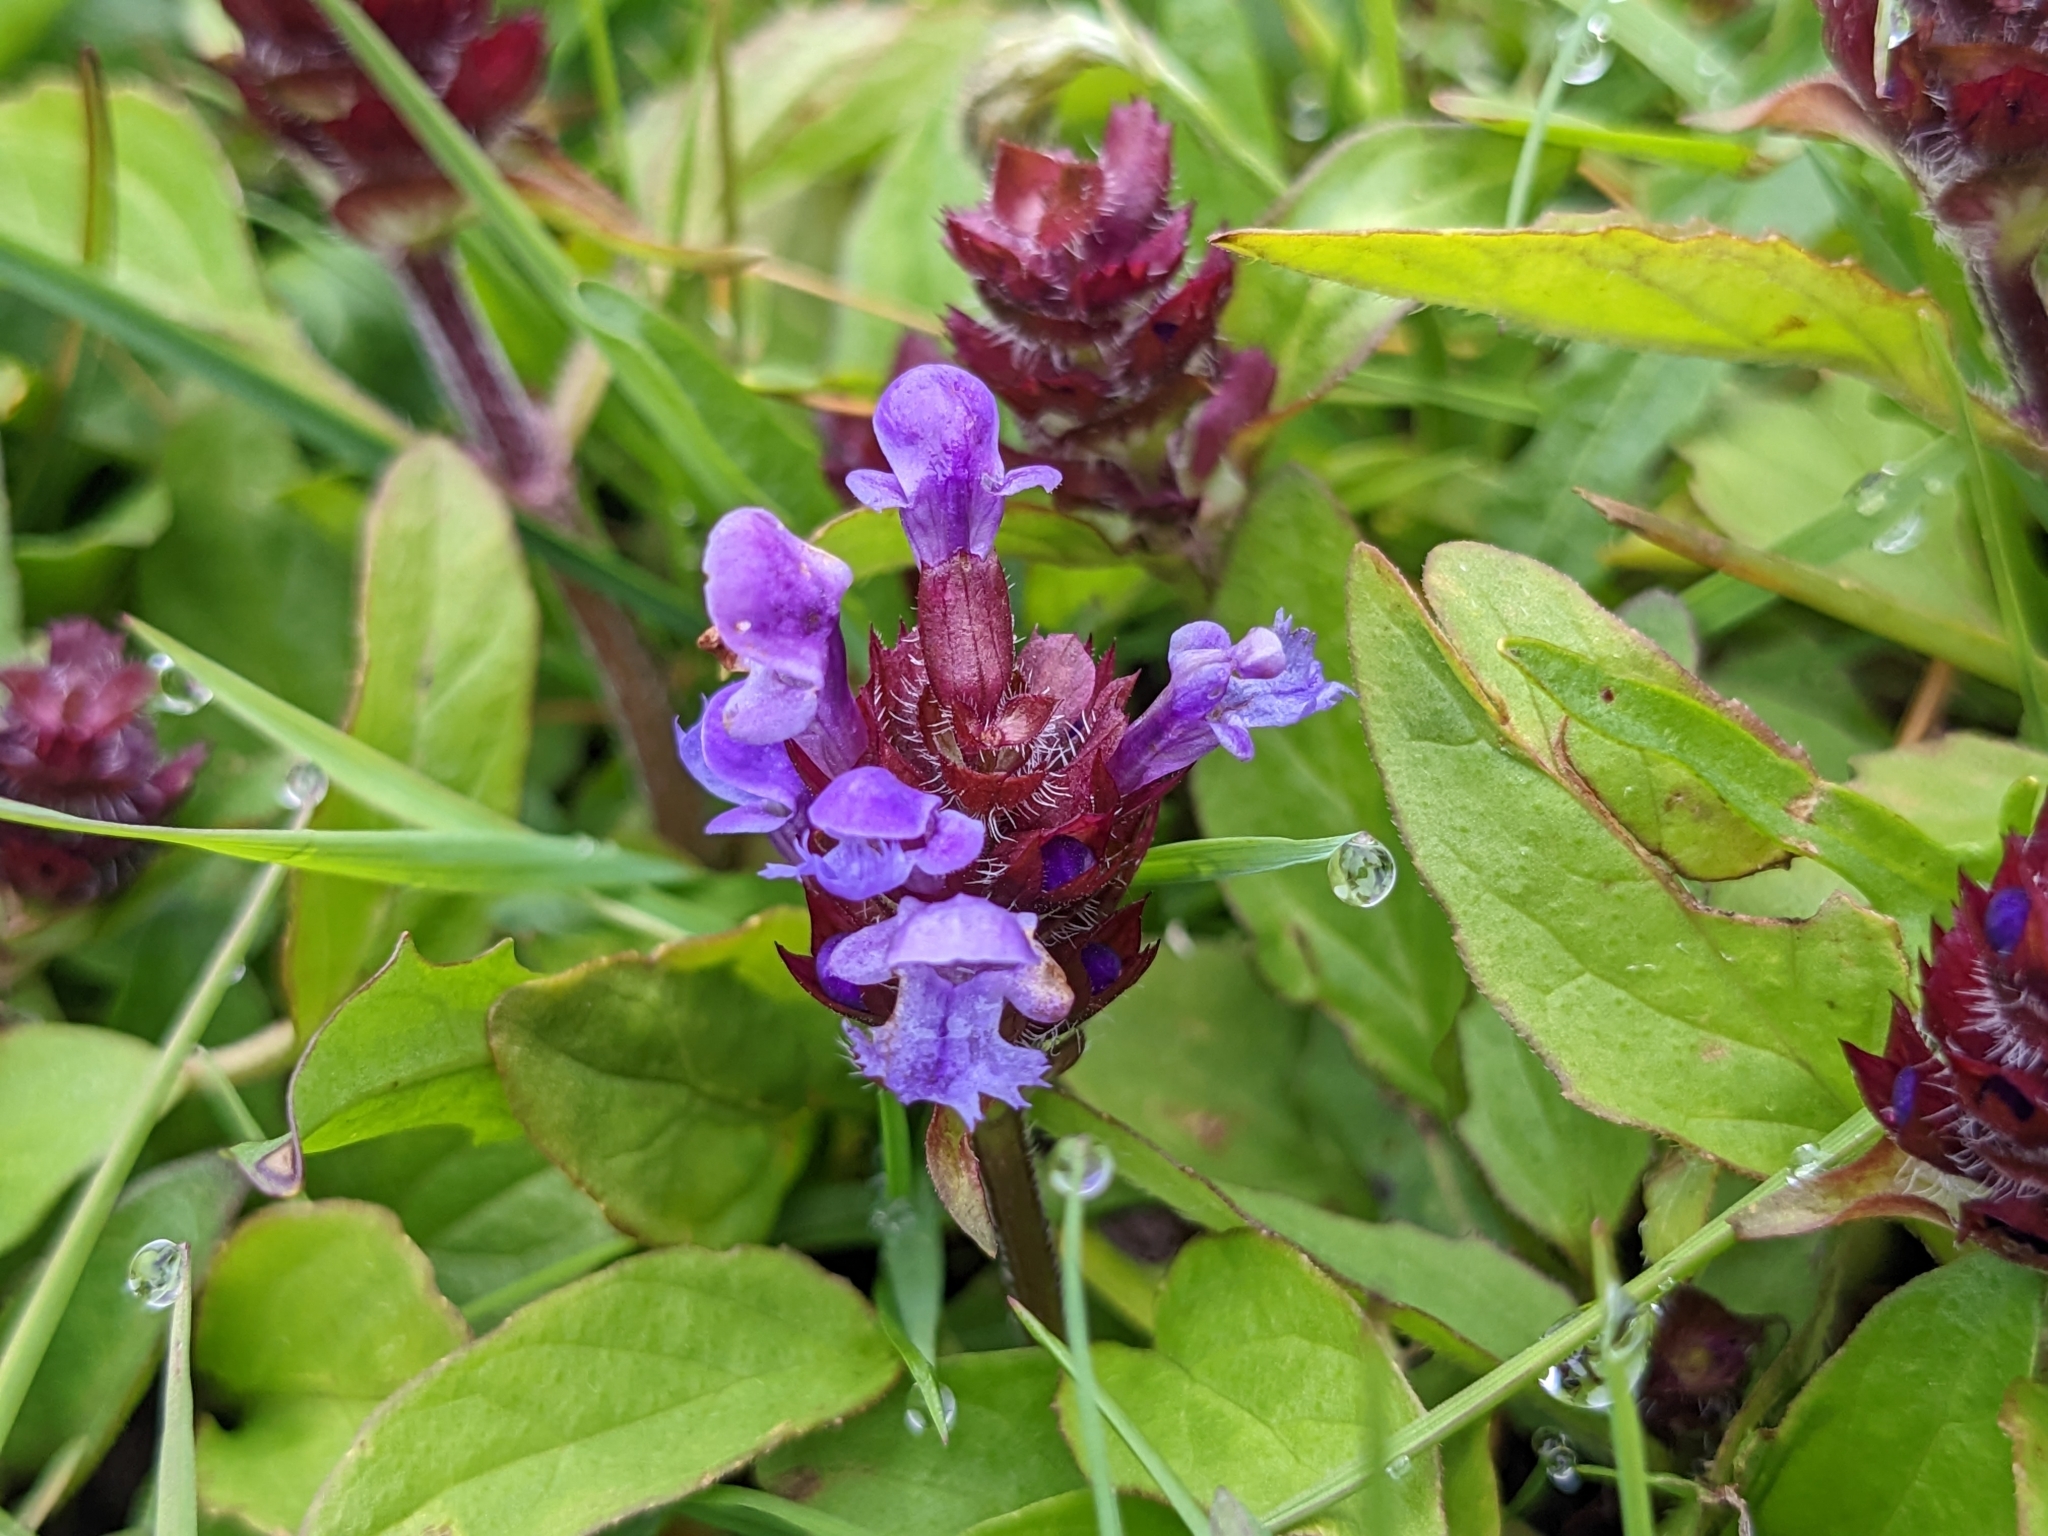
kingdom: Plantae
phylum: Tracheophyta
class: Magnoliopsida
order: Lamiales
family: Lamiaceae
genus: Prunella
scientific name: Prunella vulgaris
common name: Heal-all
